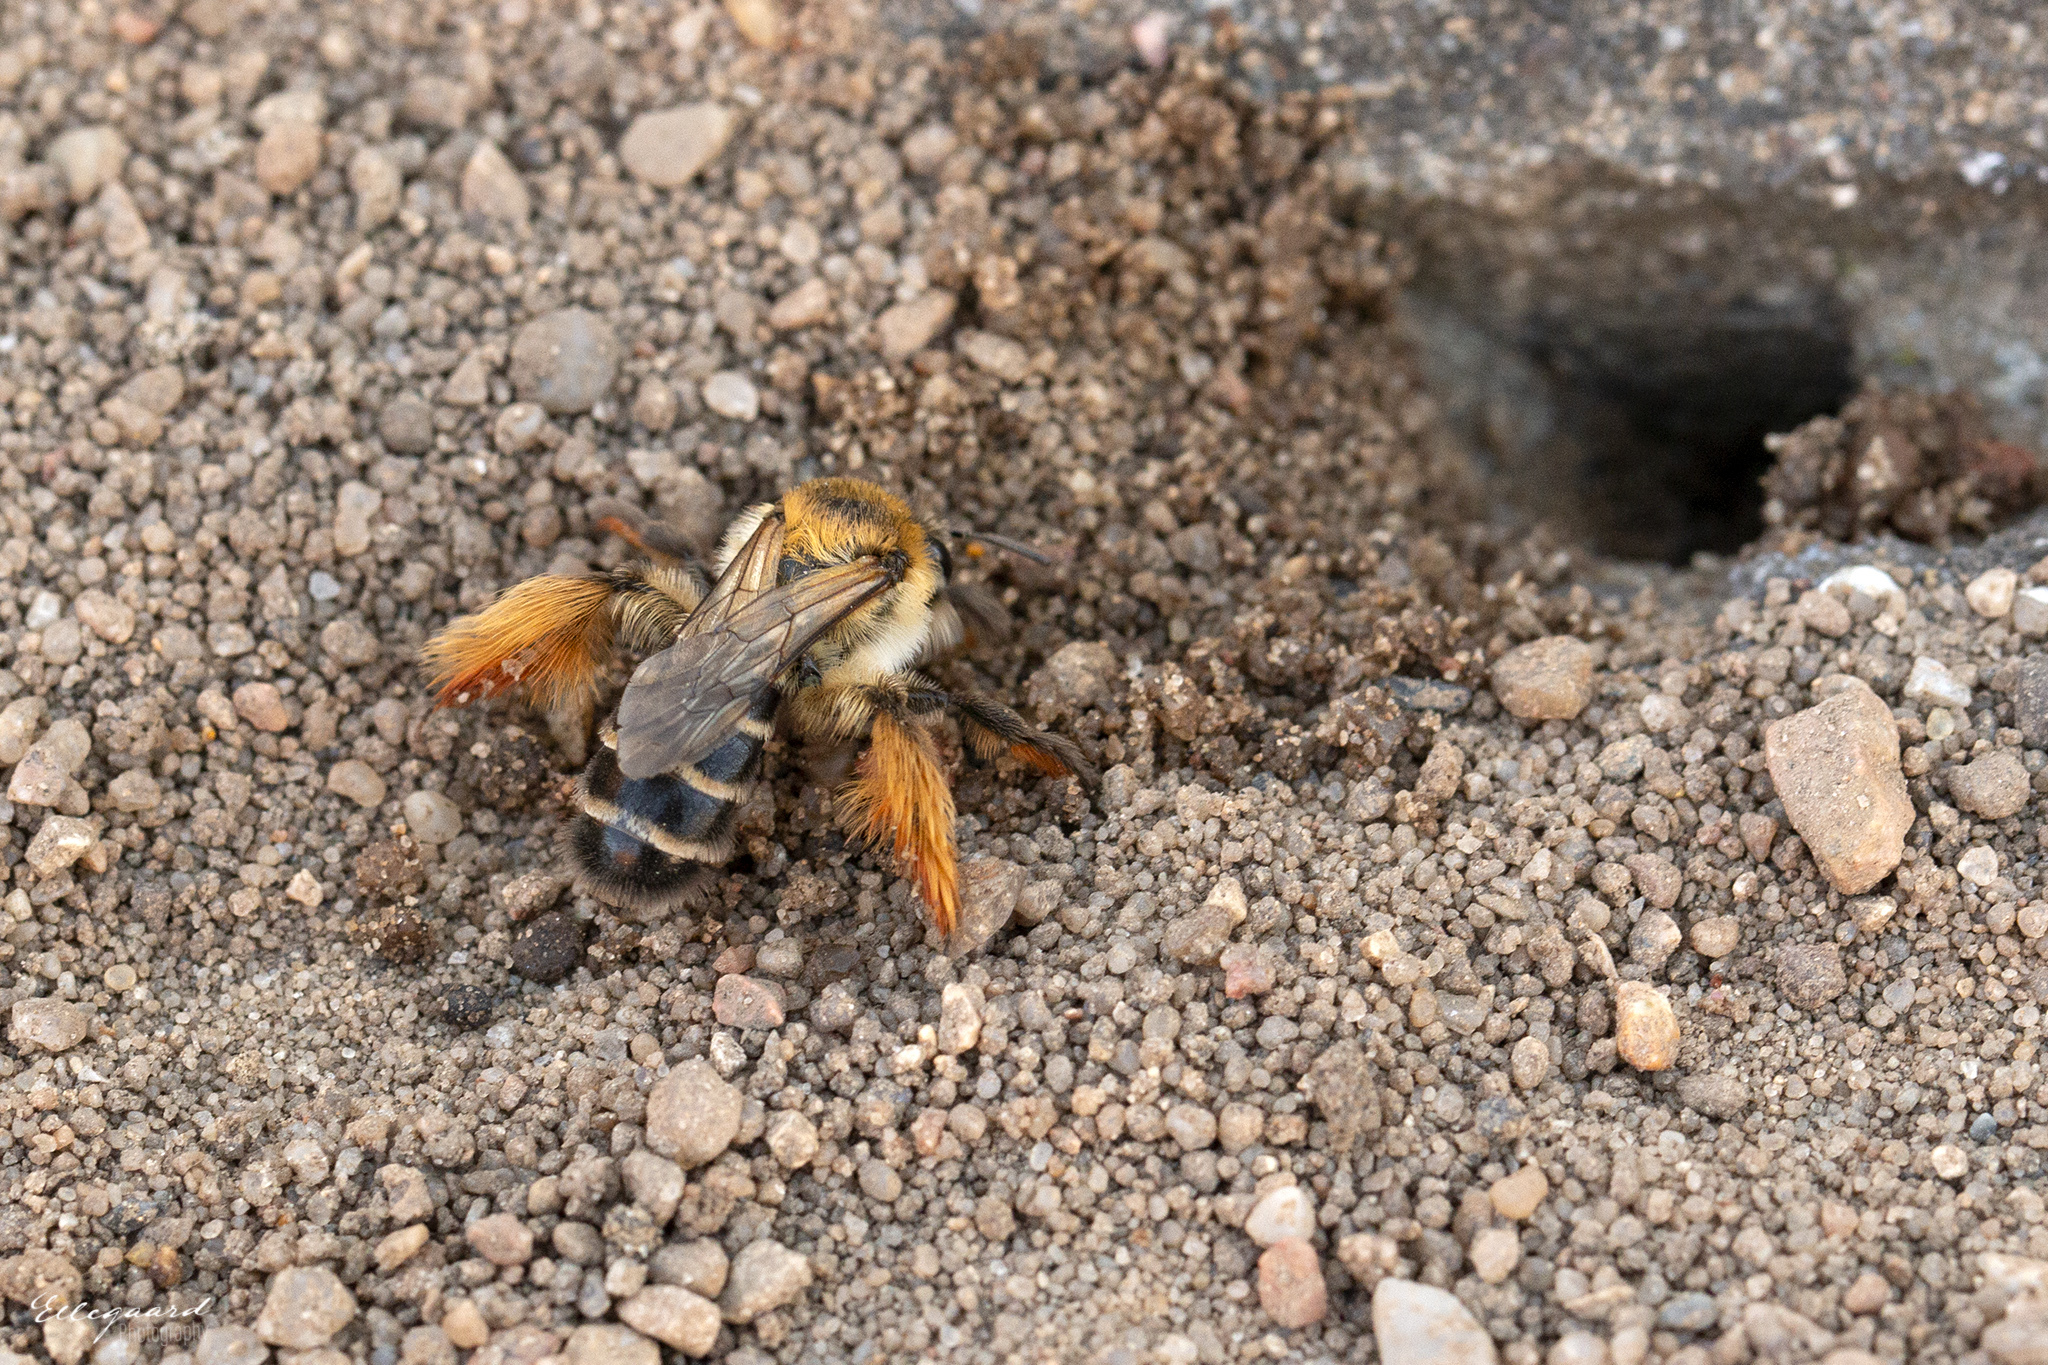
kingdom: Animalia
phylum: Arthropoda
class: Insecta
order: Hymenoptera
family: Melittidae
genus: Dasypoda
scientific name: Dasypoda hirtipes
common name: Pantaloon bee
